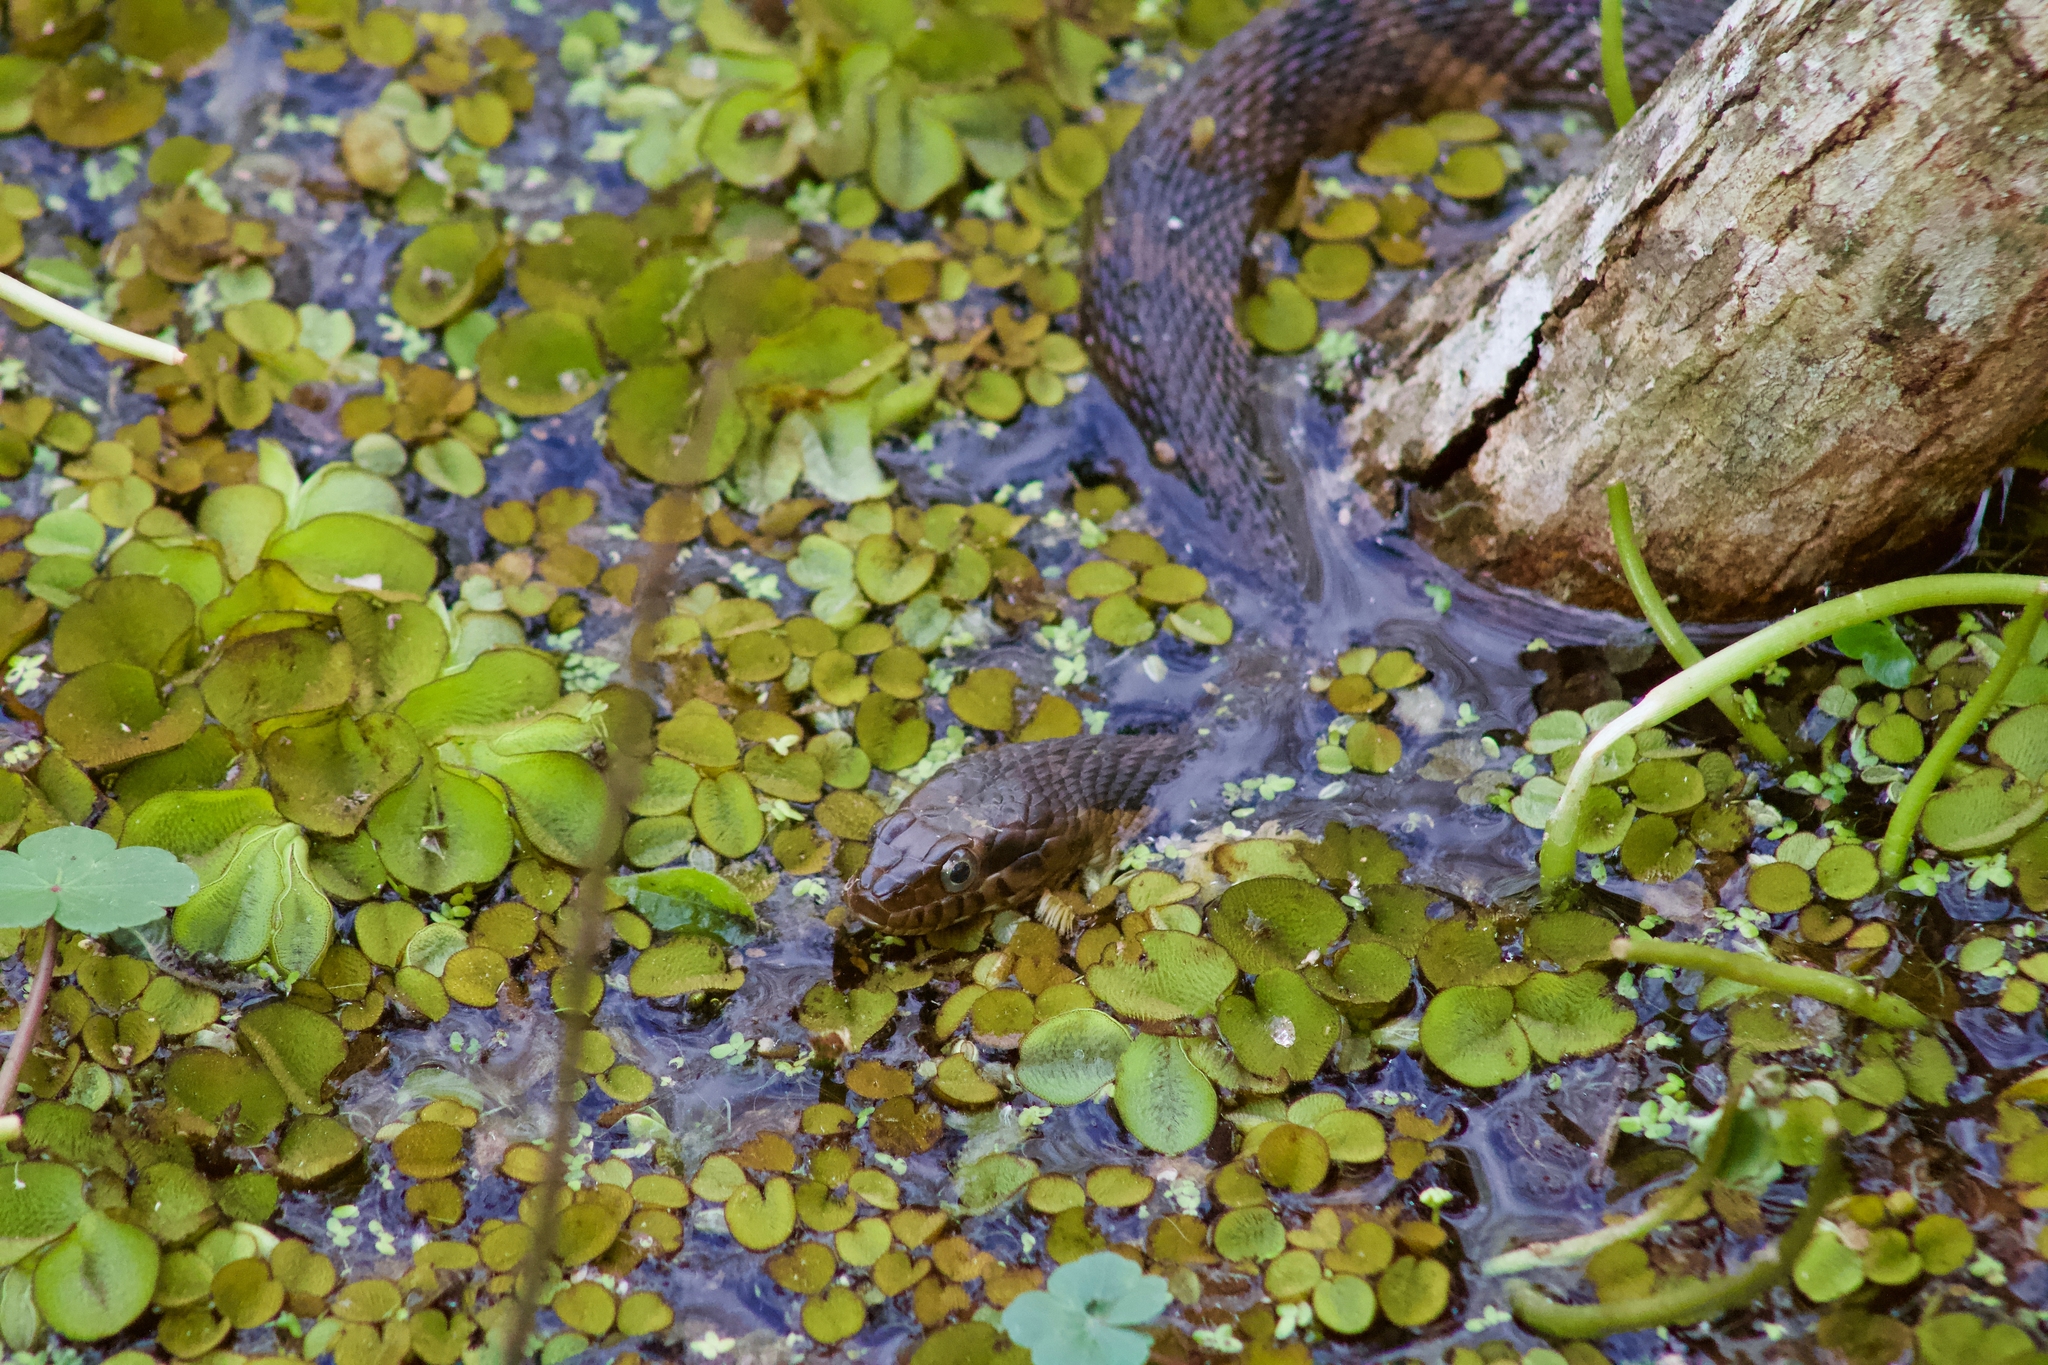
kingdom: Animalia
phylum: Chordata
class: Squamata
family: Colubridae
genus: Nerodia
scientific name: Nerodia fasciata
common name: Southern water snake
